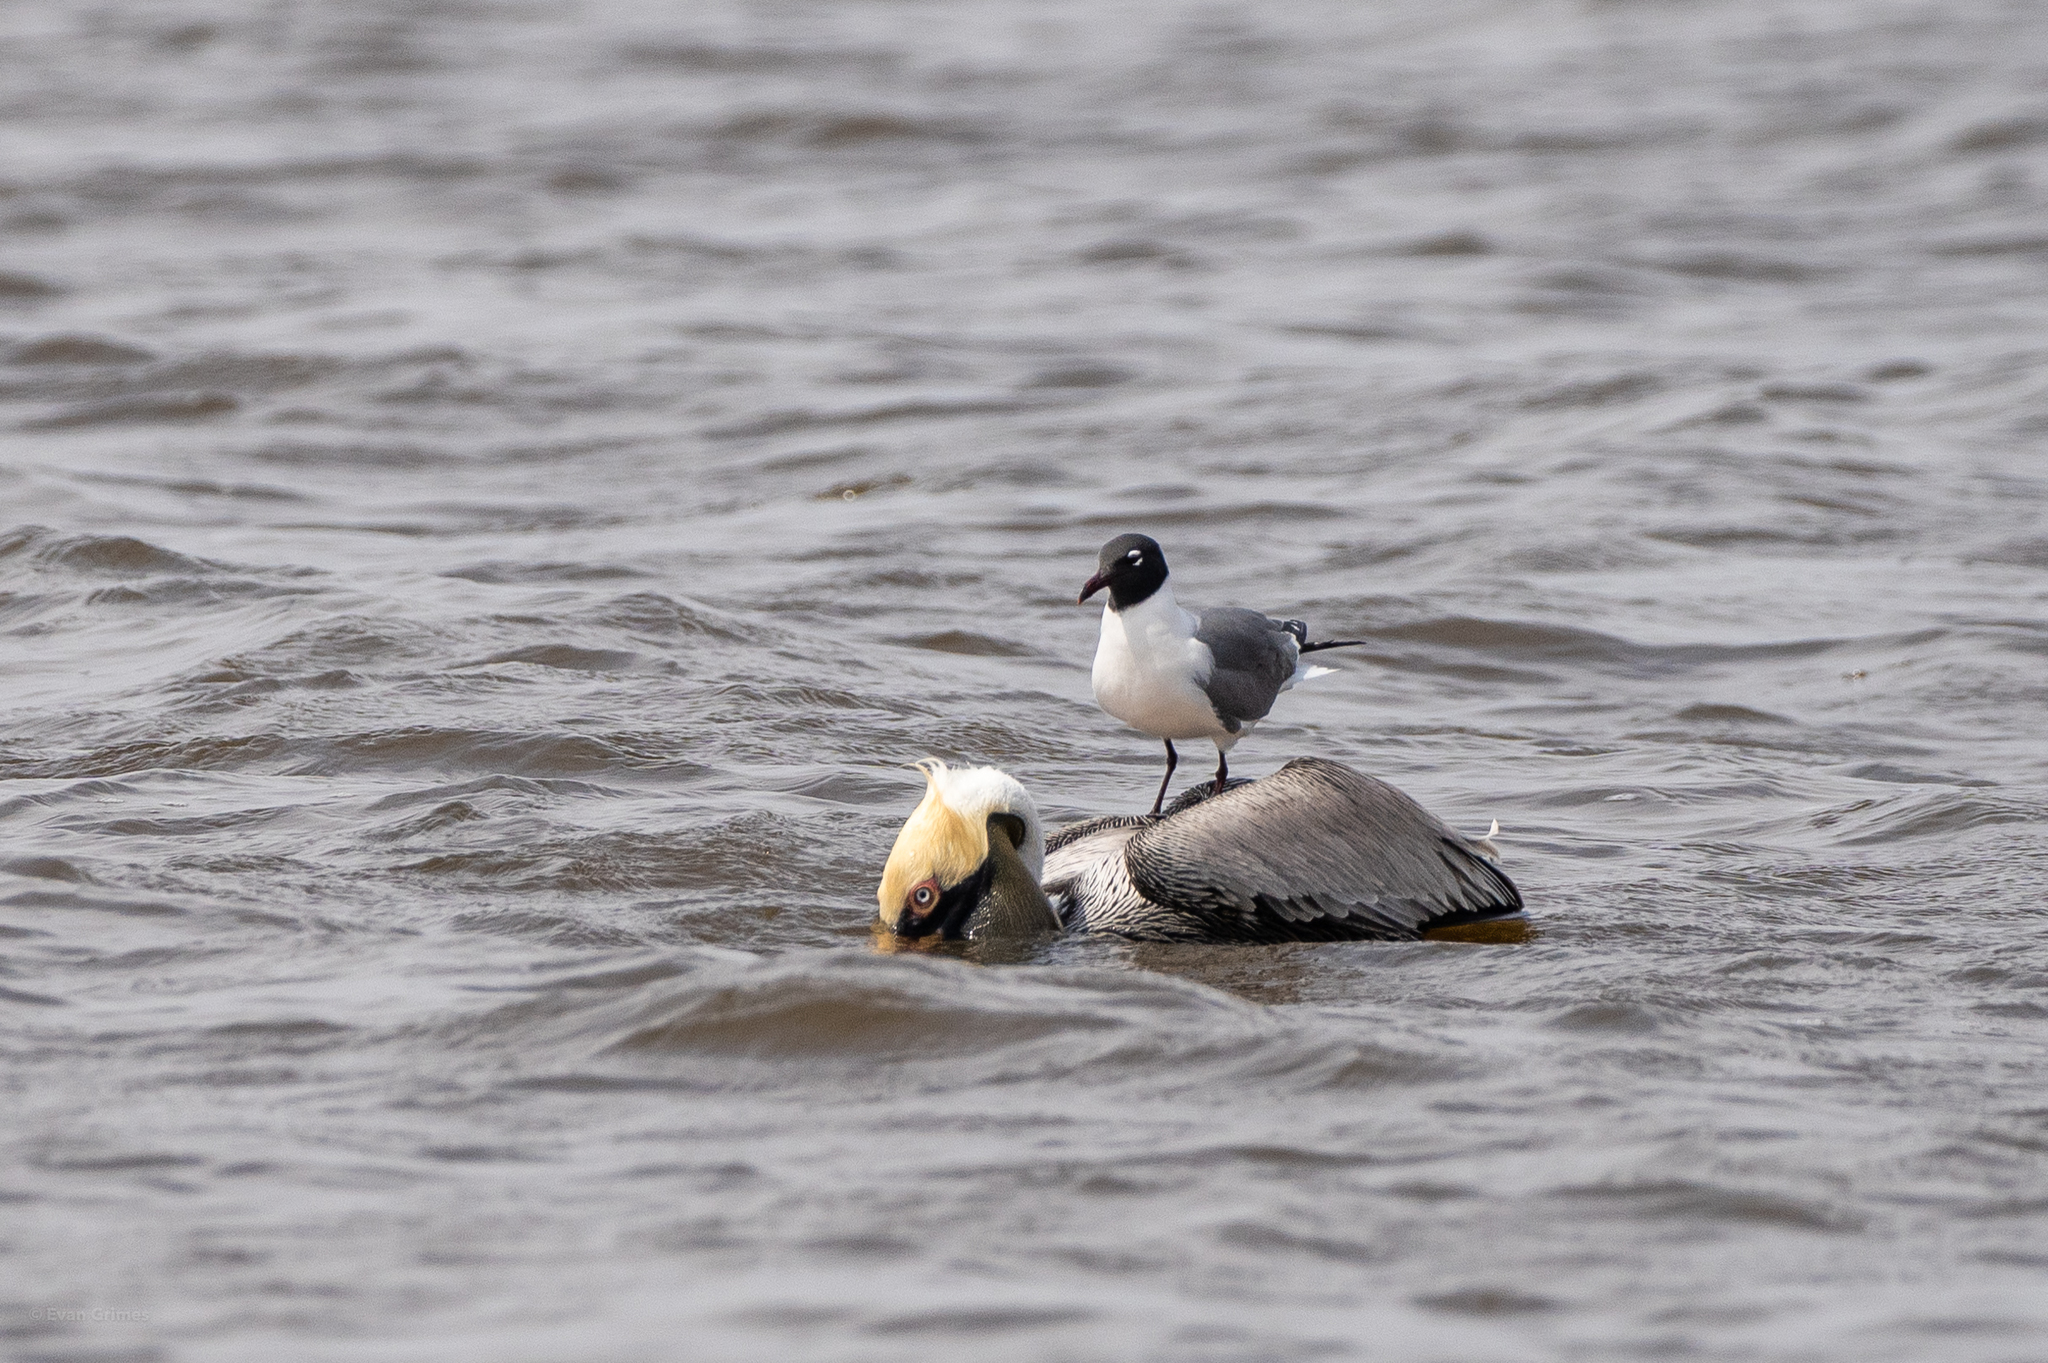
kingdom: Animalia
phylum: Chordata
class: Aves
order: Charadriiformes
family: Laridae
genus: Leucophaeus
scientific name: Leucophaeus atricilla
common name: Laughing gull
